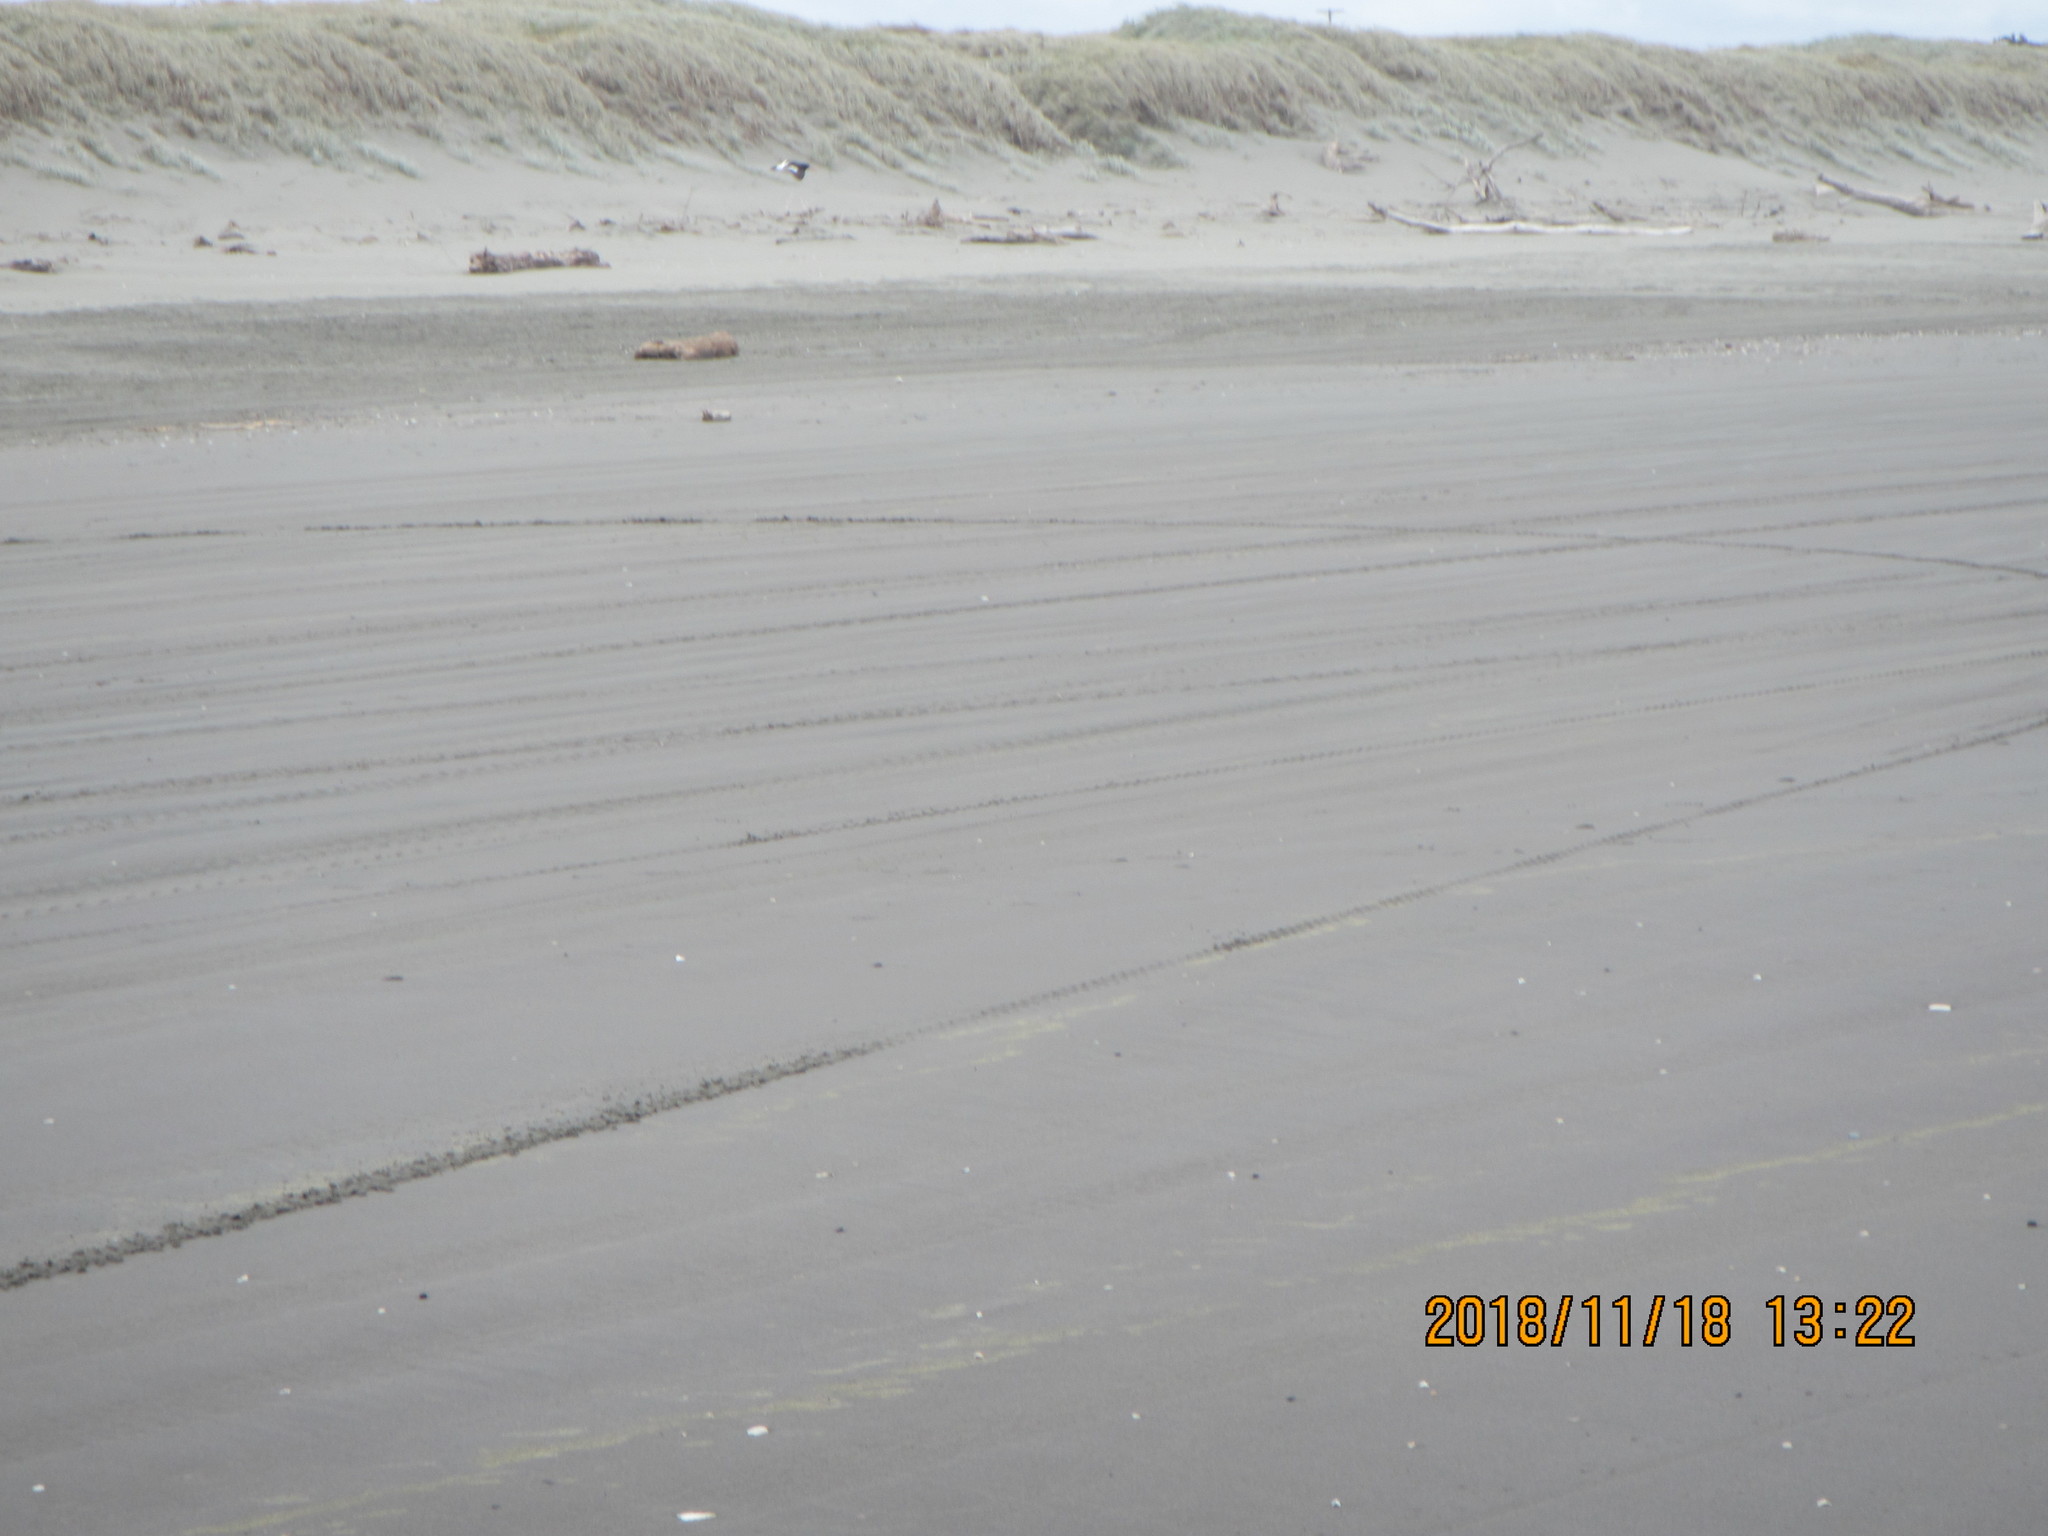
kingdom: Animalia
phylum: Chordata
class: Aves
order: Charadriiformes
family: Haematopodidae
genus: Haematopus
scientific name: Haematopus finschi
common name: South island oystercatcher
